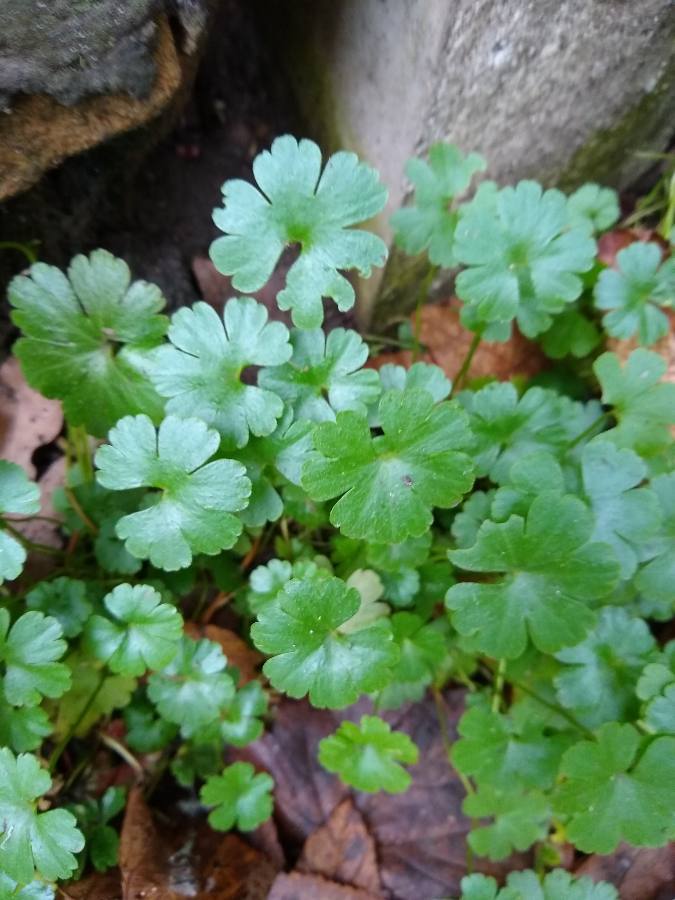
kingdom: Plantae
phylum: Tracheophyta
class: Magnoliopsida
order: Geraniales
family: Geraniaceae
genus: Geranium
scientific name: Geranium lucidum
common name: Shining crane's-bill
